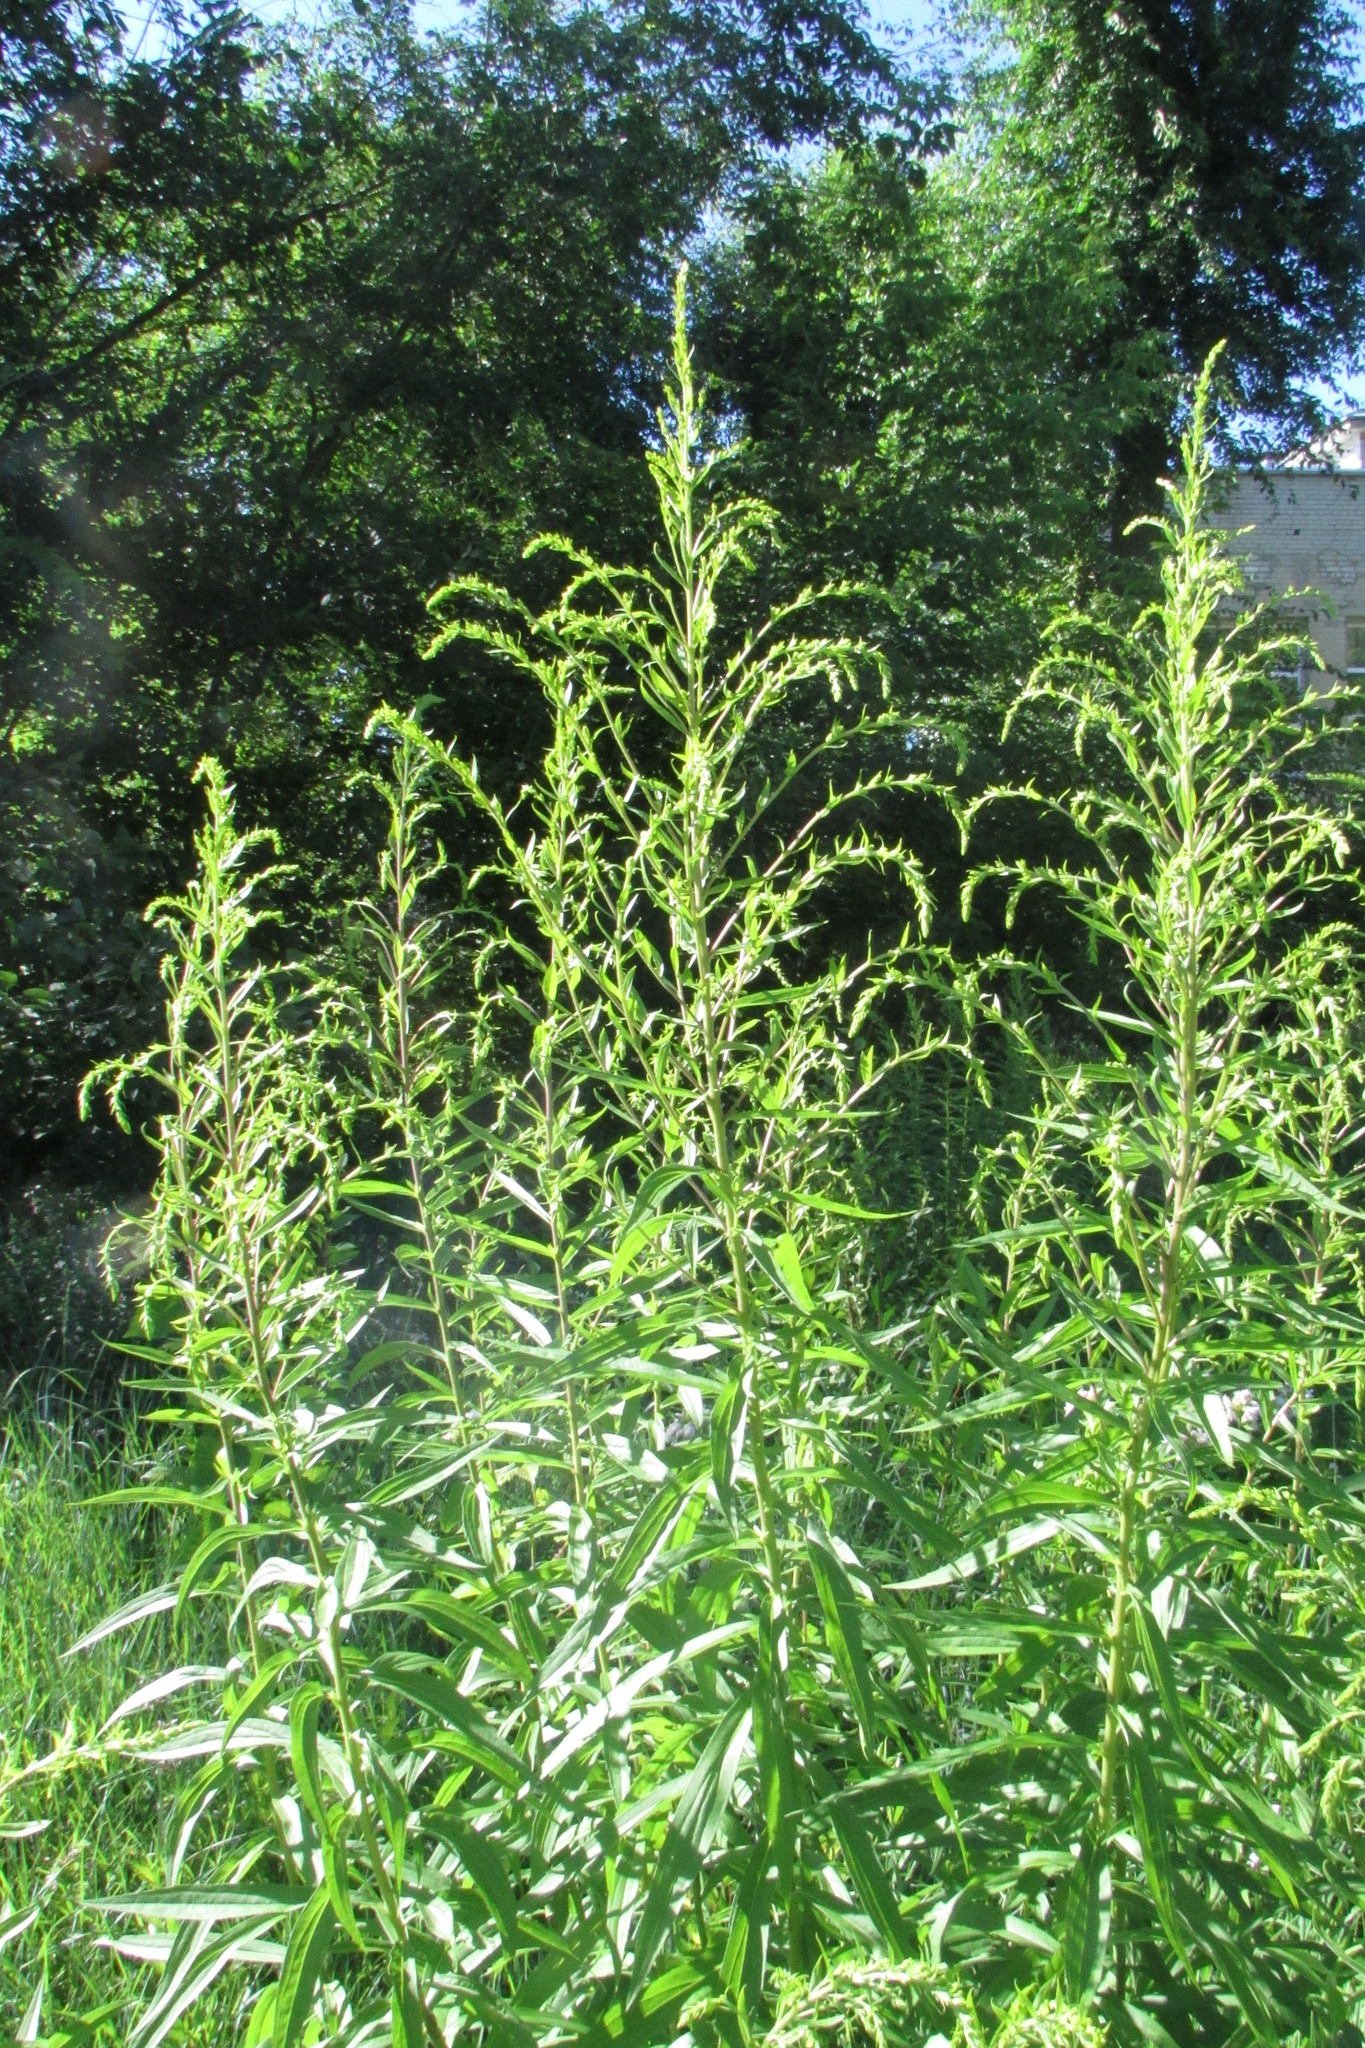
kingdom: Plantae
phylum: Tracheophyta
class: Magnoliopsida
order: Asterales
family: Asteraceae
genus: Solidago
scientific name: Solidago canadensis
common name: Canada goldenrod
